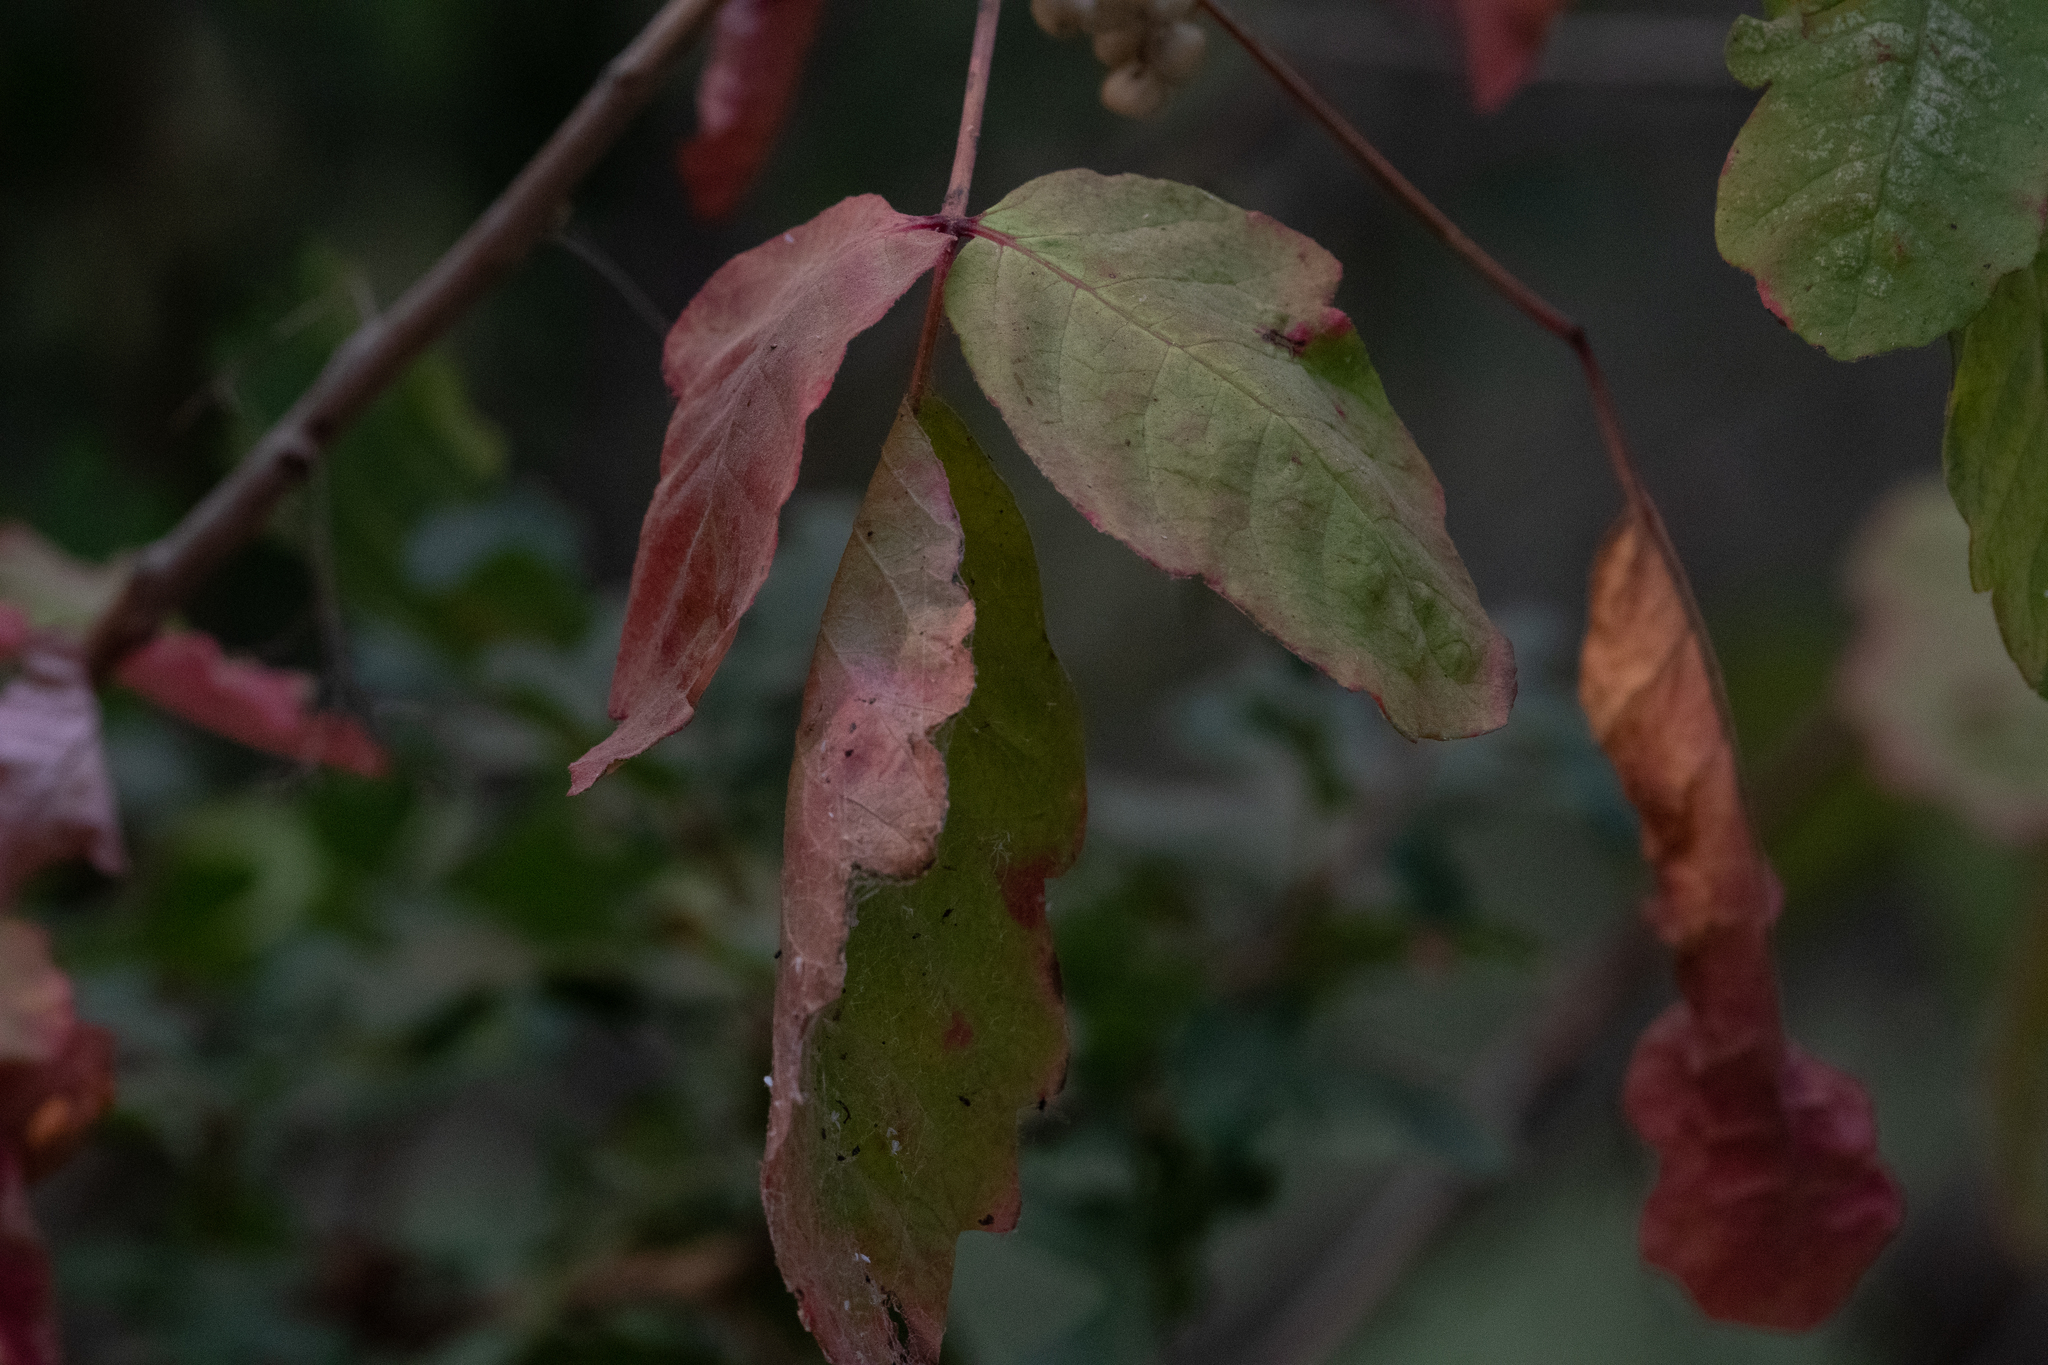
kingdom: Plantae
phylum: Tracheophyta
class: Magnoliopsida
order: Sapindales
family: Anacardiaceae
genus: Toxicodendron
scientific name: Toxicodendron diversilobum
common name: Pacific poison-oak
